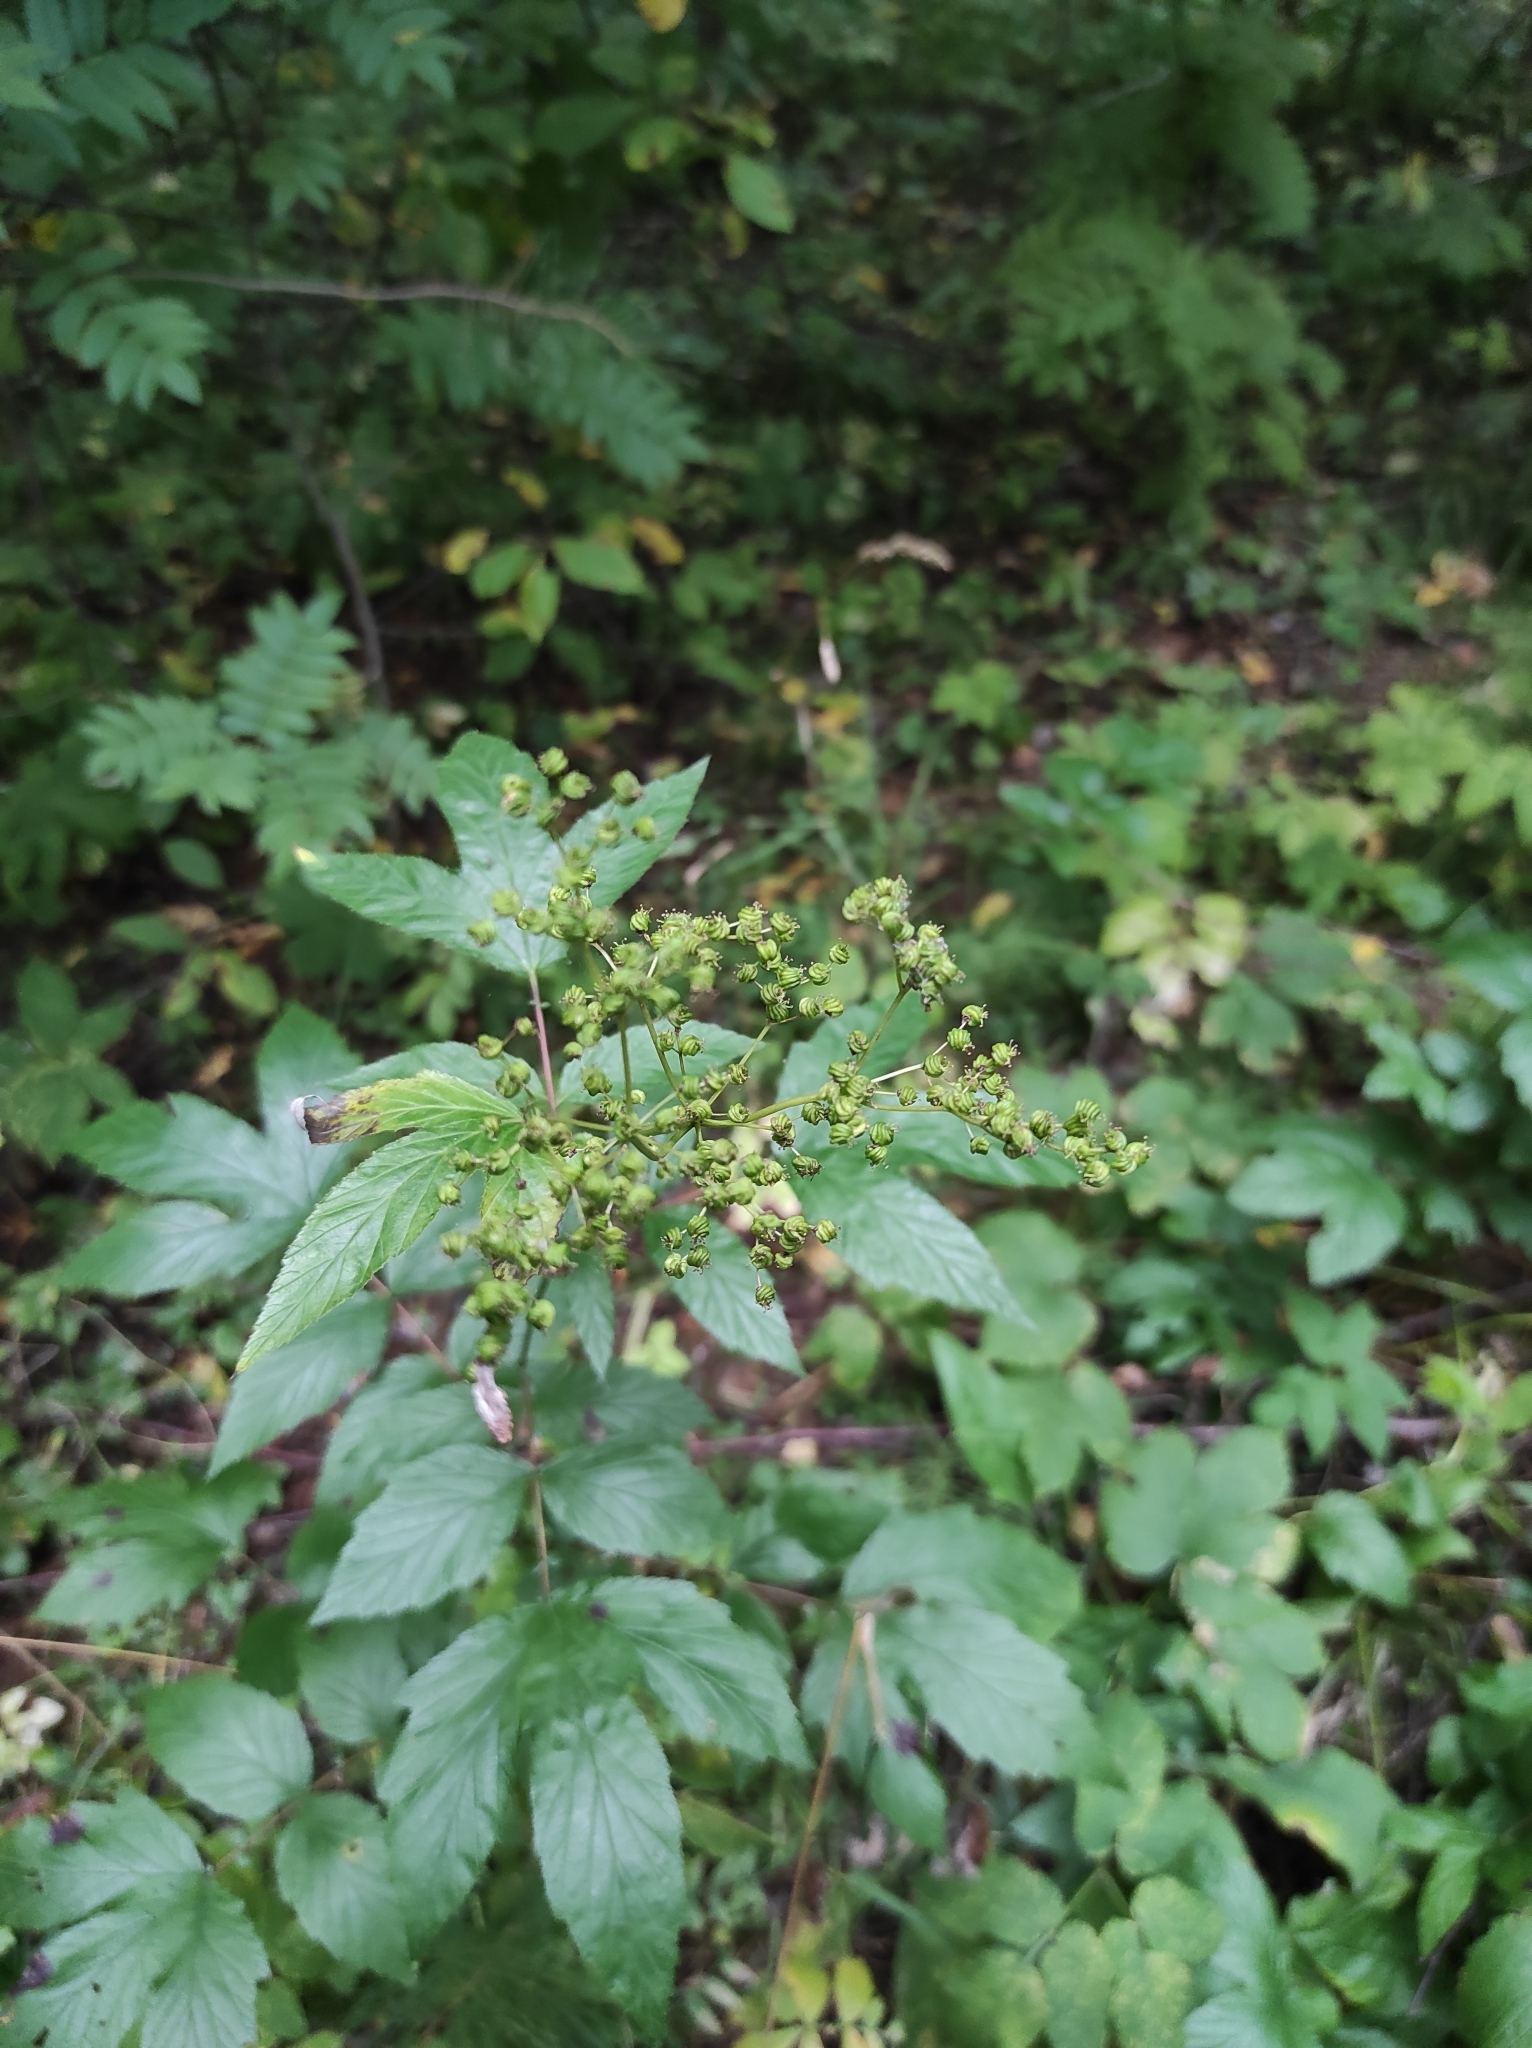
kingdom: Plantae
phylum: Tracheophyta
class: Magnoliopsida
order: Rosales
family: Rosaceae
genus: Filipendula
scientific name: Filipendula ulmaria
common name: Meadowsweet
